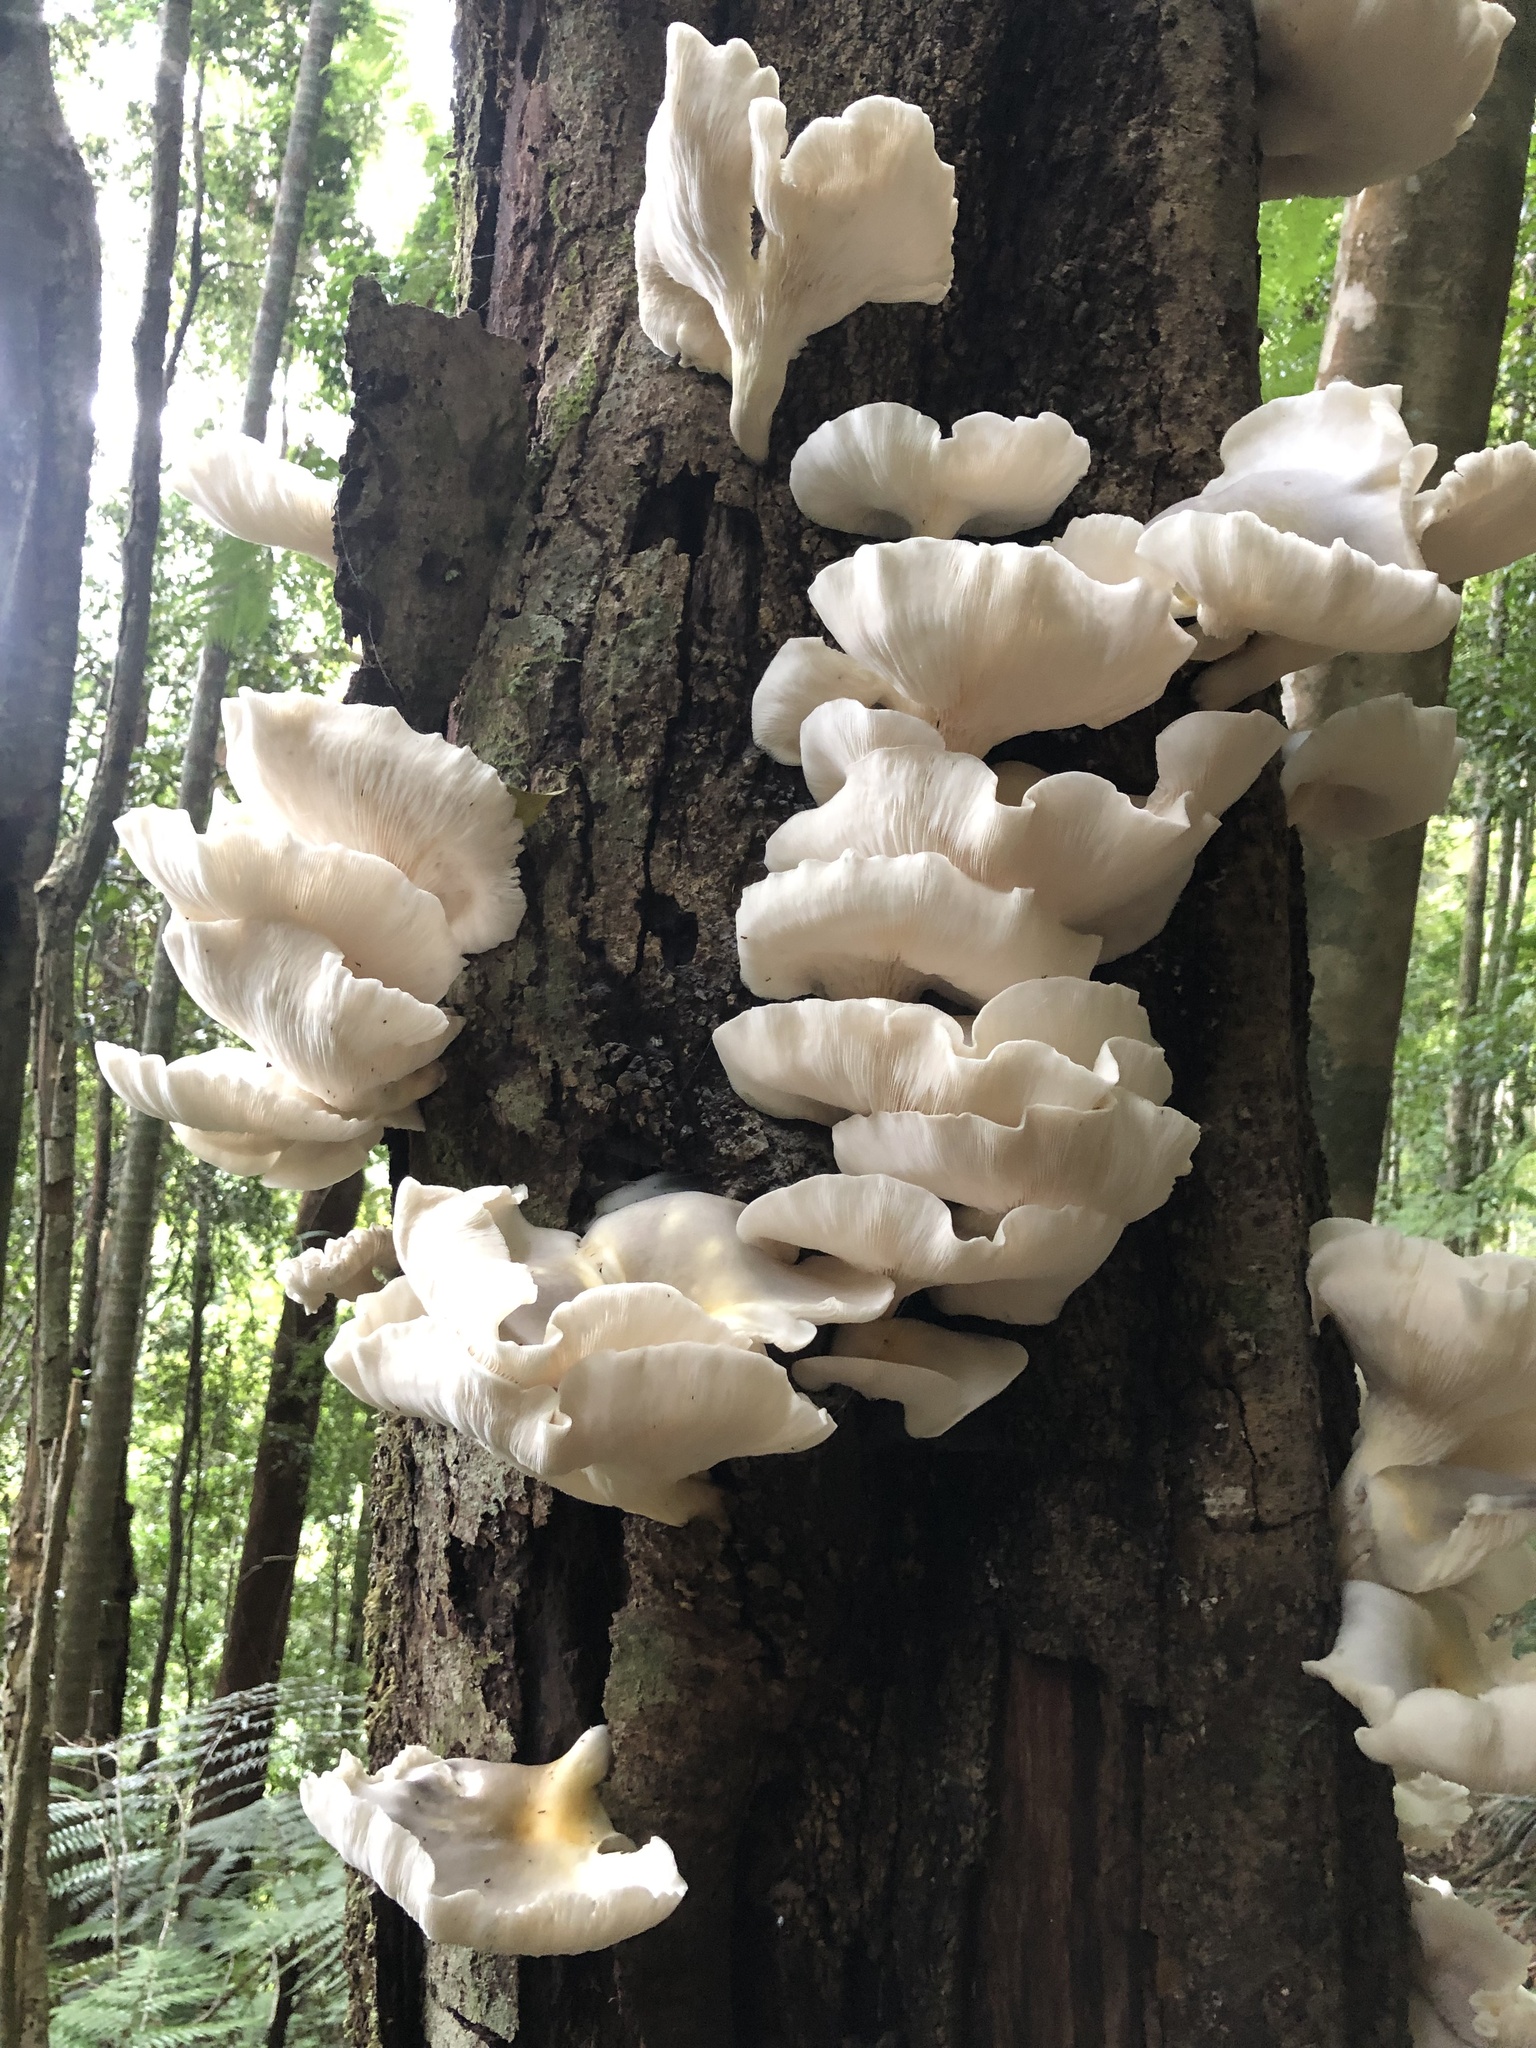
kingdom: Fungi
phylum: Basidiomycota
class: Agaricomycetes
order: Agaricales
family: Omphalotaceae
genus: Omphalotus
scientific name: Omphalotus nidiformis
